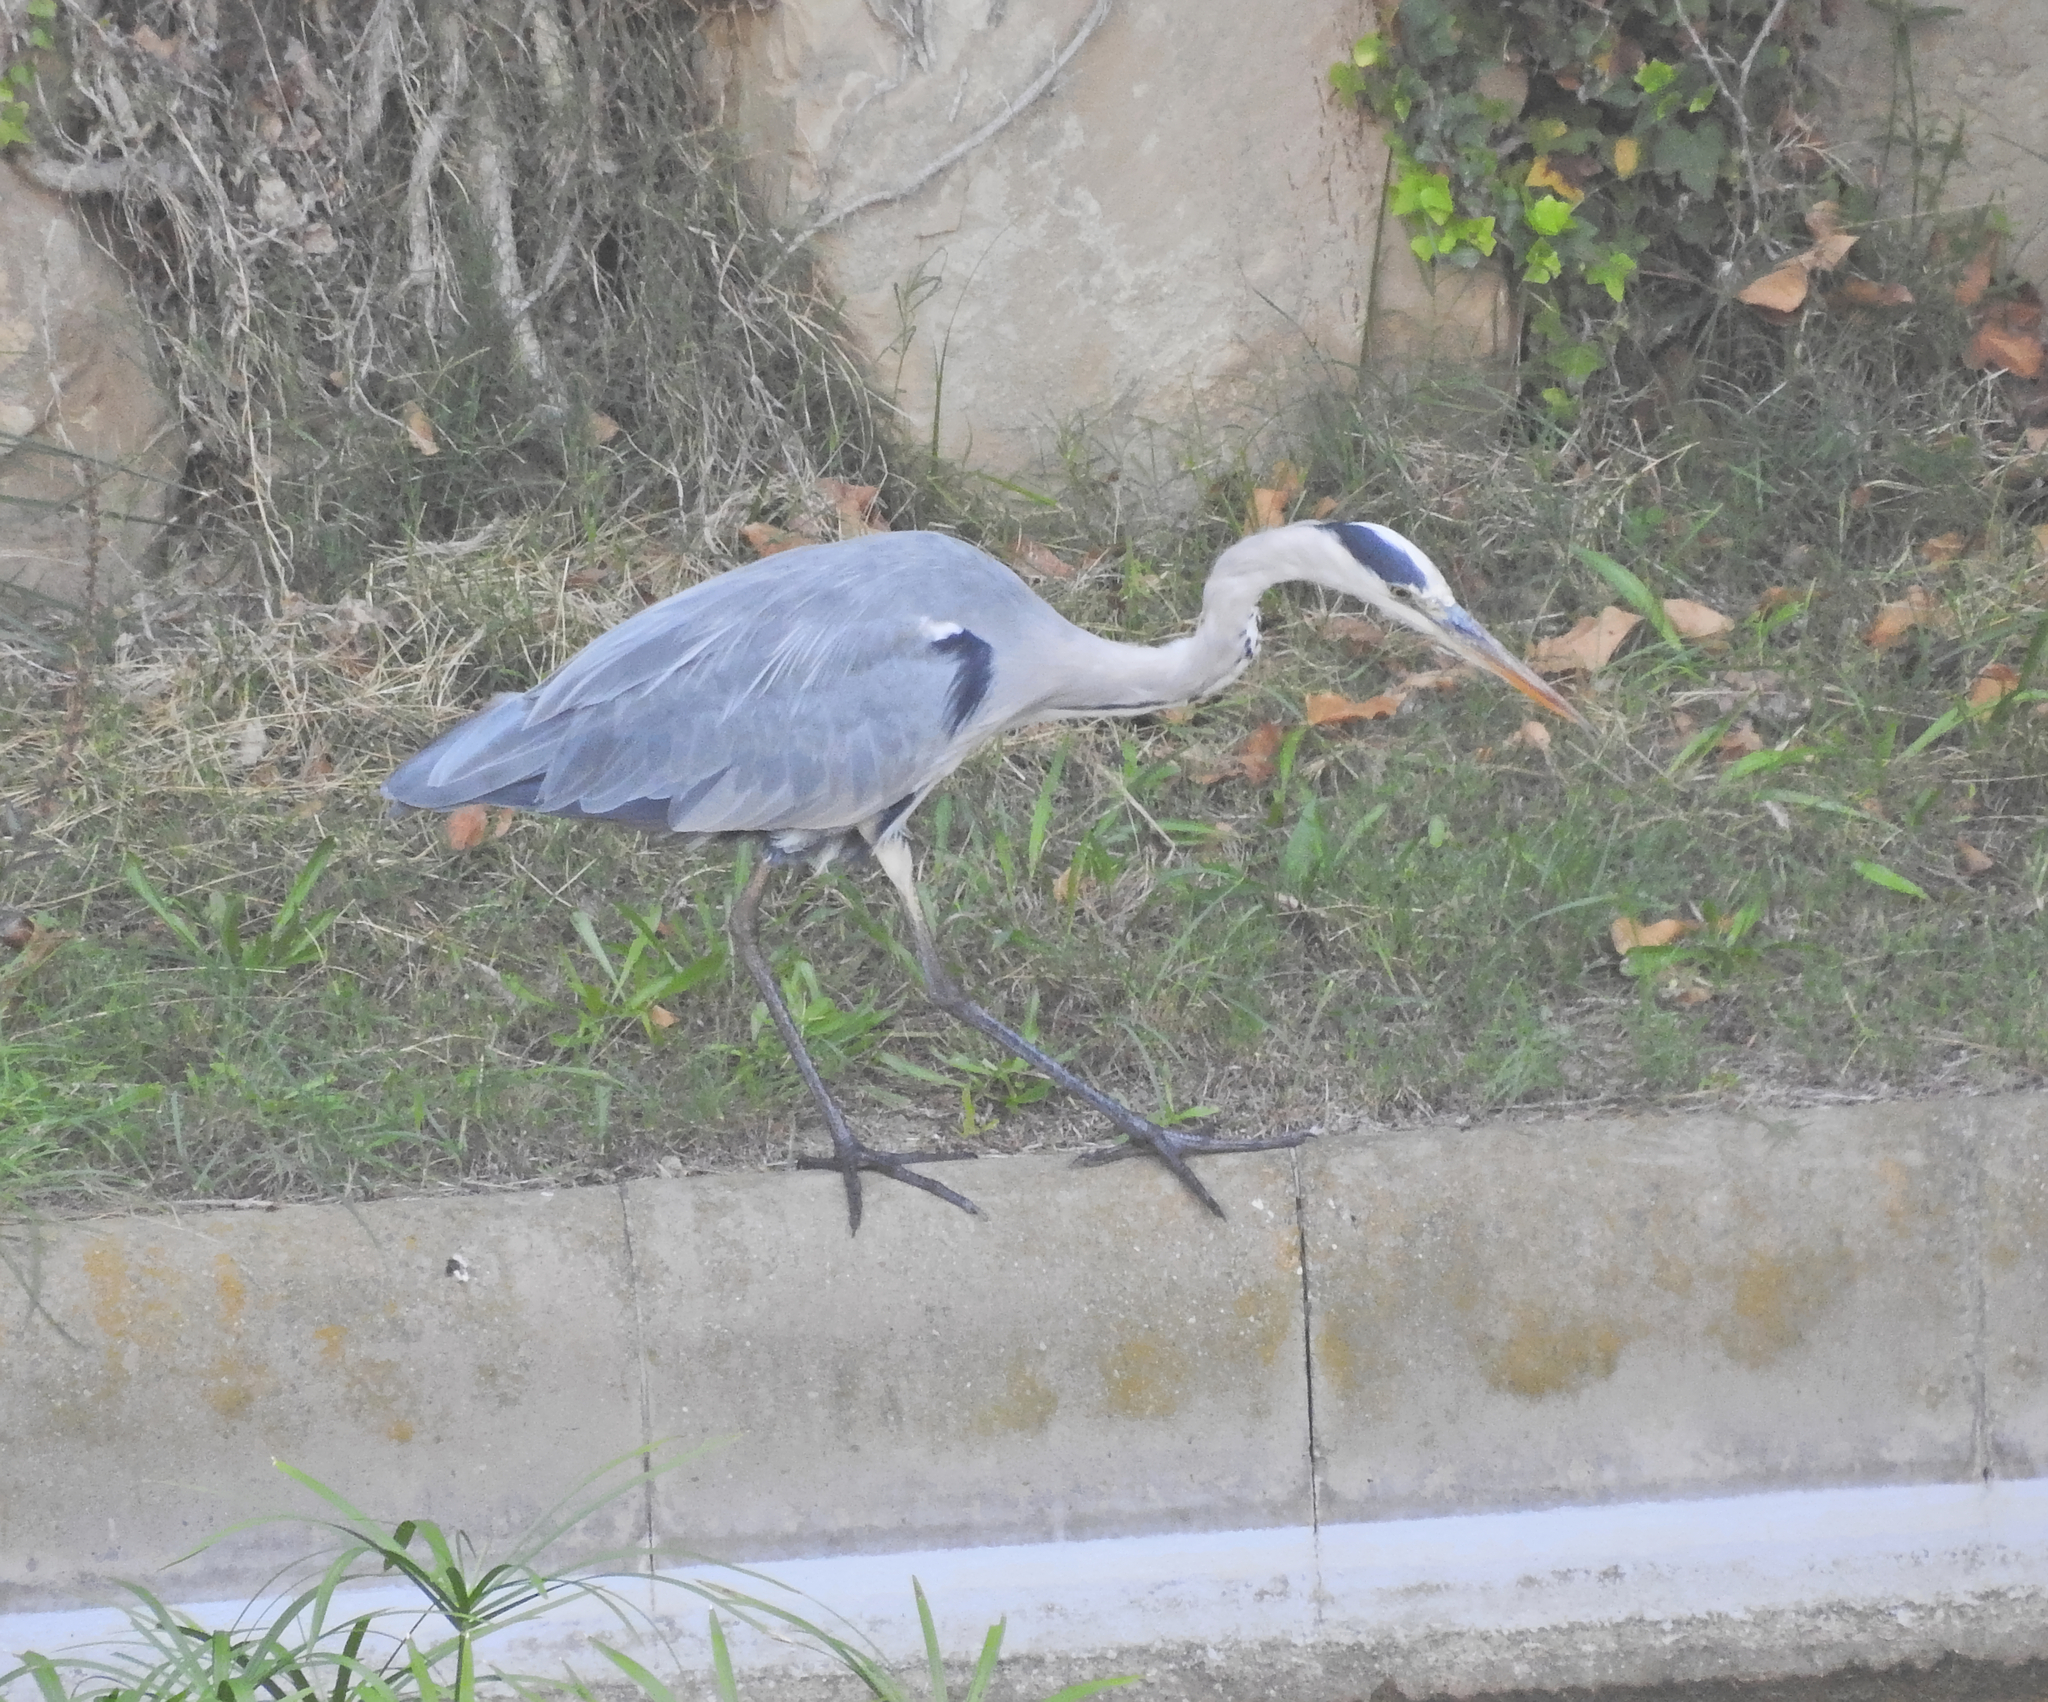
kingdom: Animalia
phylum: Chordata
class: Aves
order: Pelecaniformes
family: Ardeidae
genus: Ardea
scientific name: Ardea cinerea
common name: Grey heron
